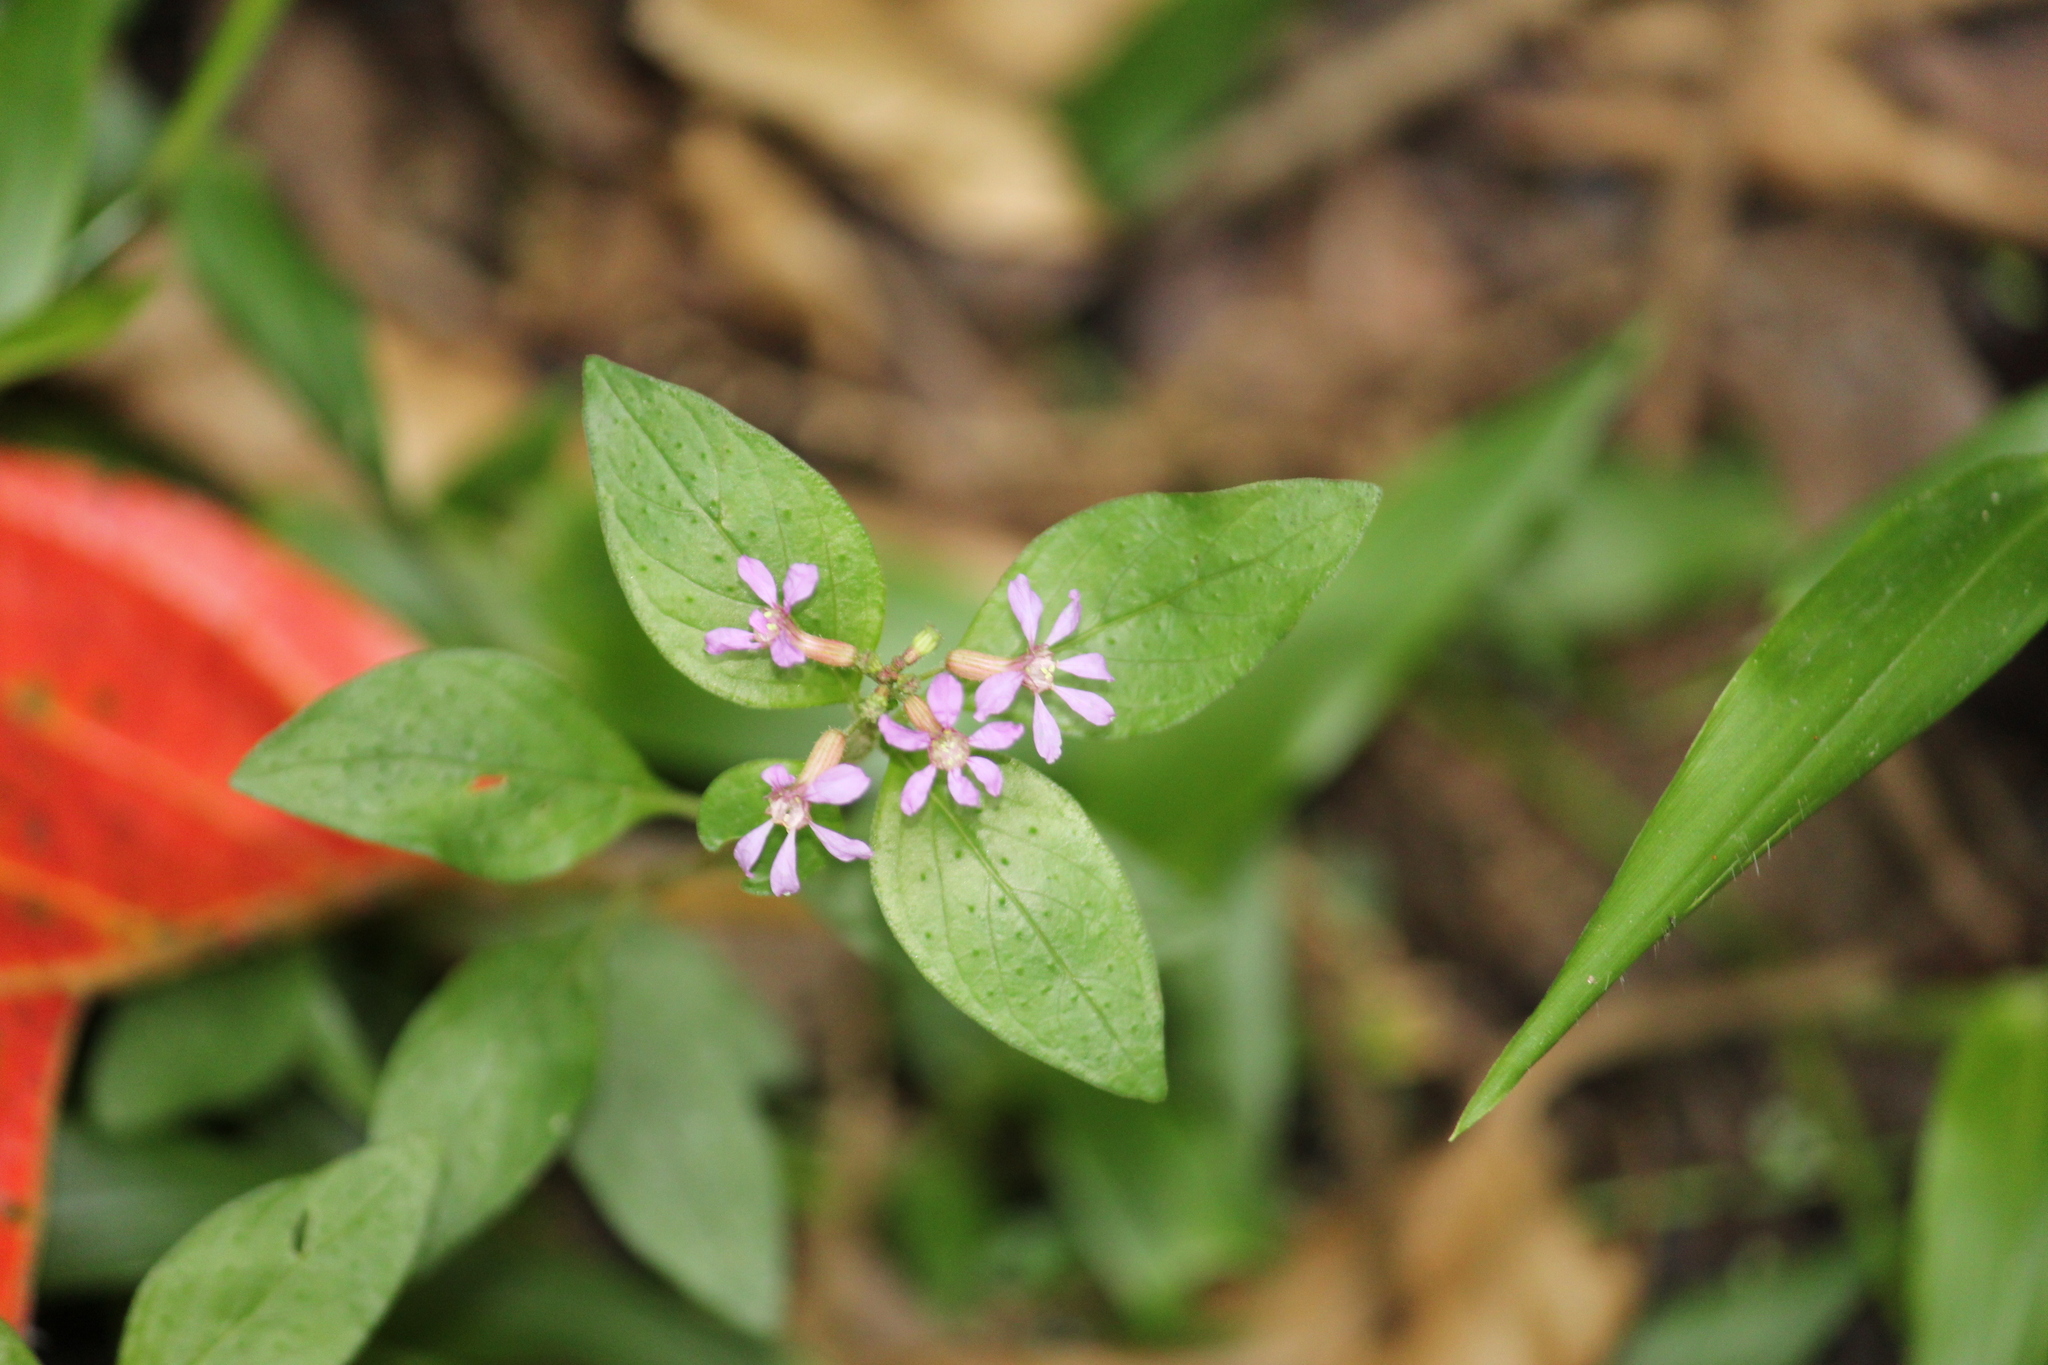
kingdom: Plantae
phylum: Tracheophyta
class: Magnoliopsida
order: Myrtales
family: Lythraceae
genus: Cuphea
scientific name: Cuphea racemosa
